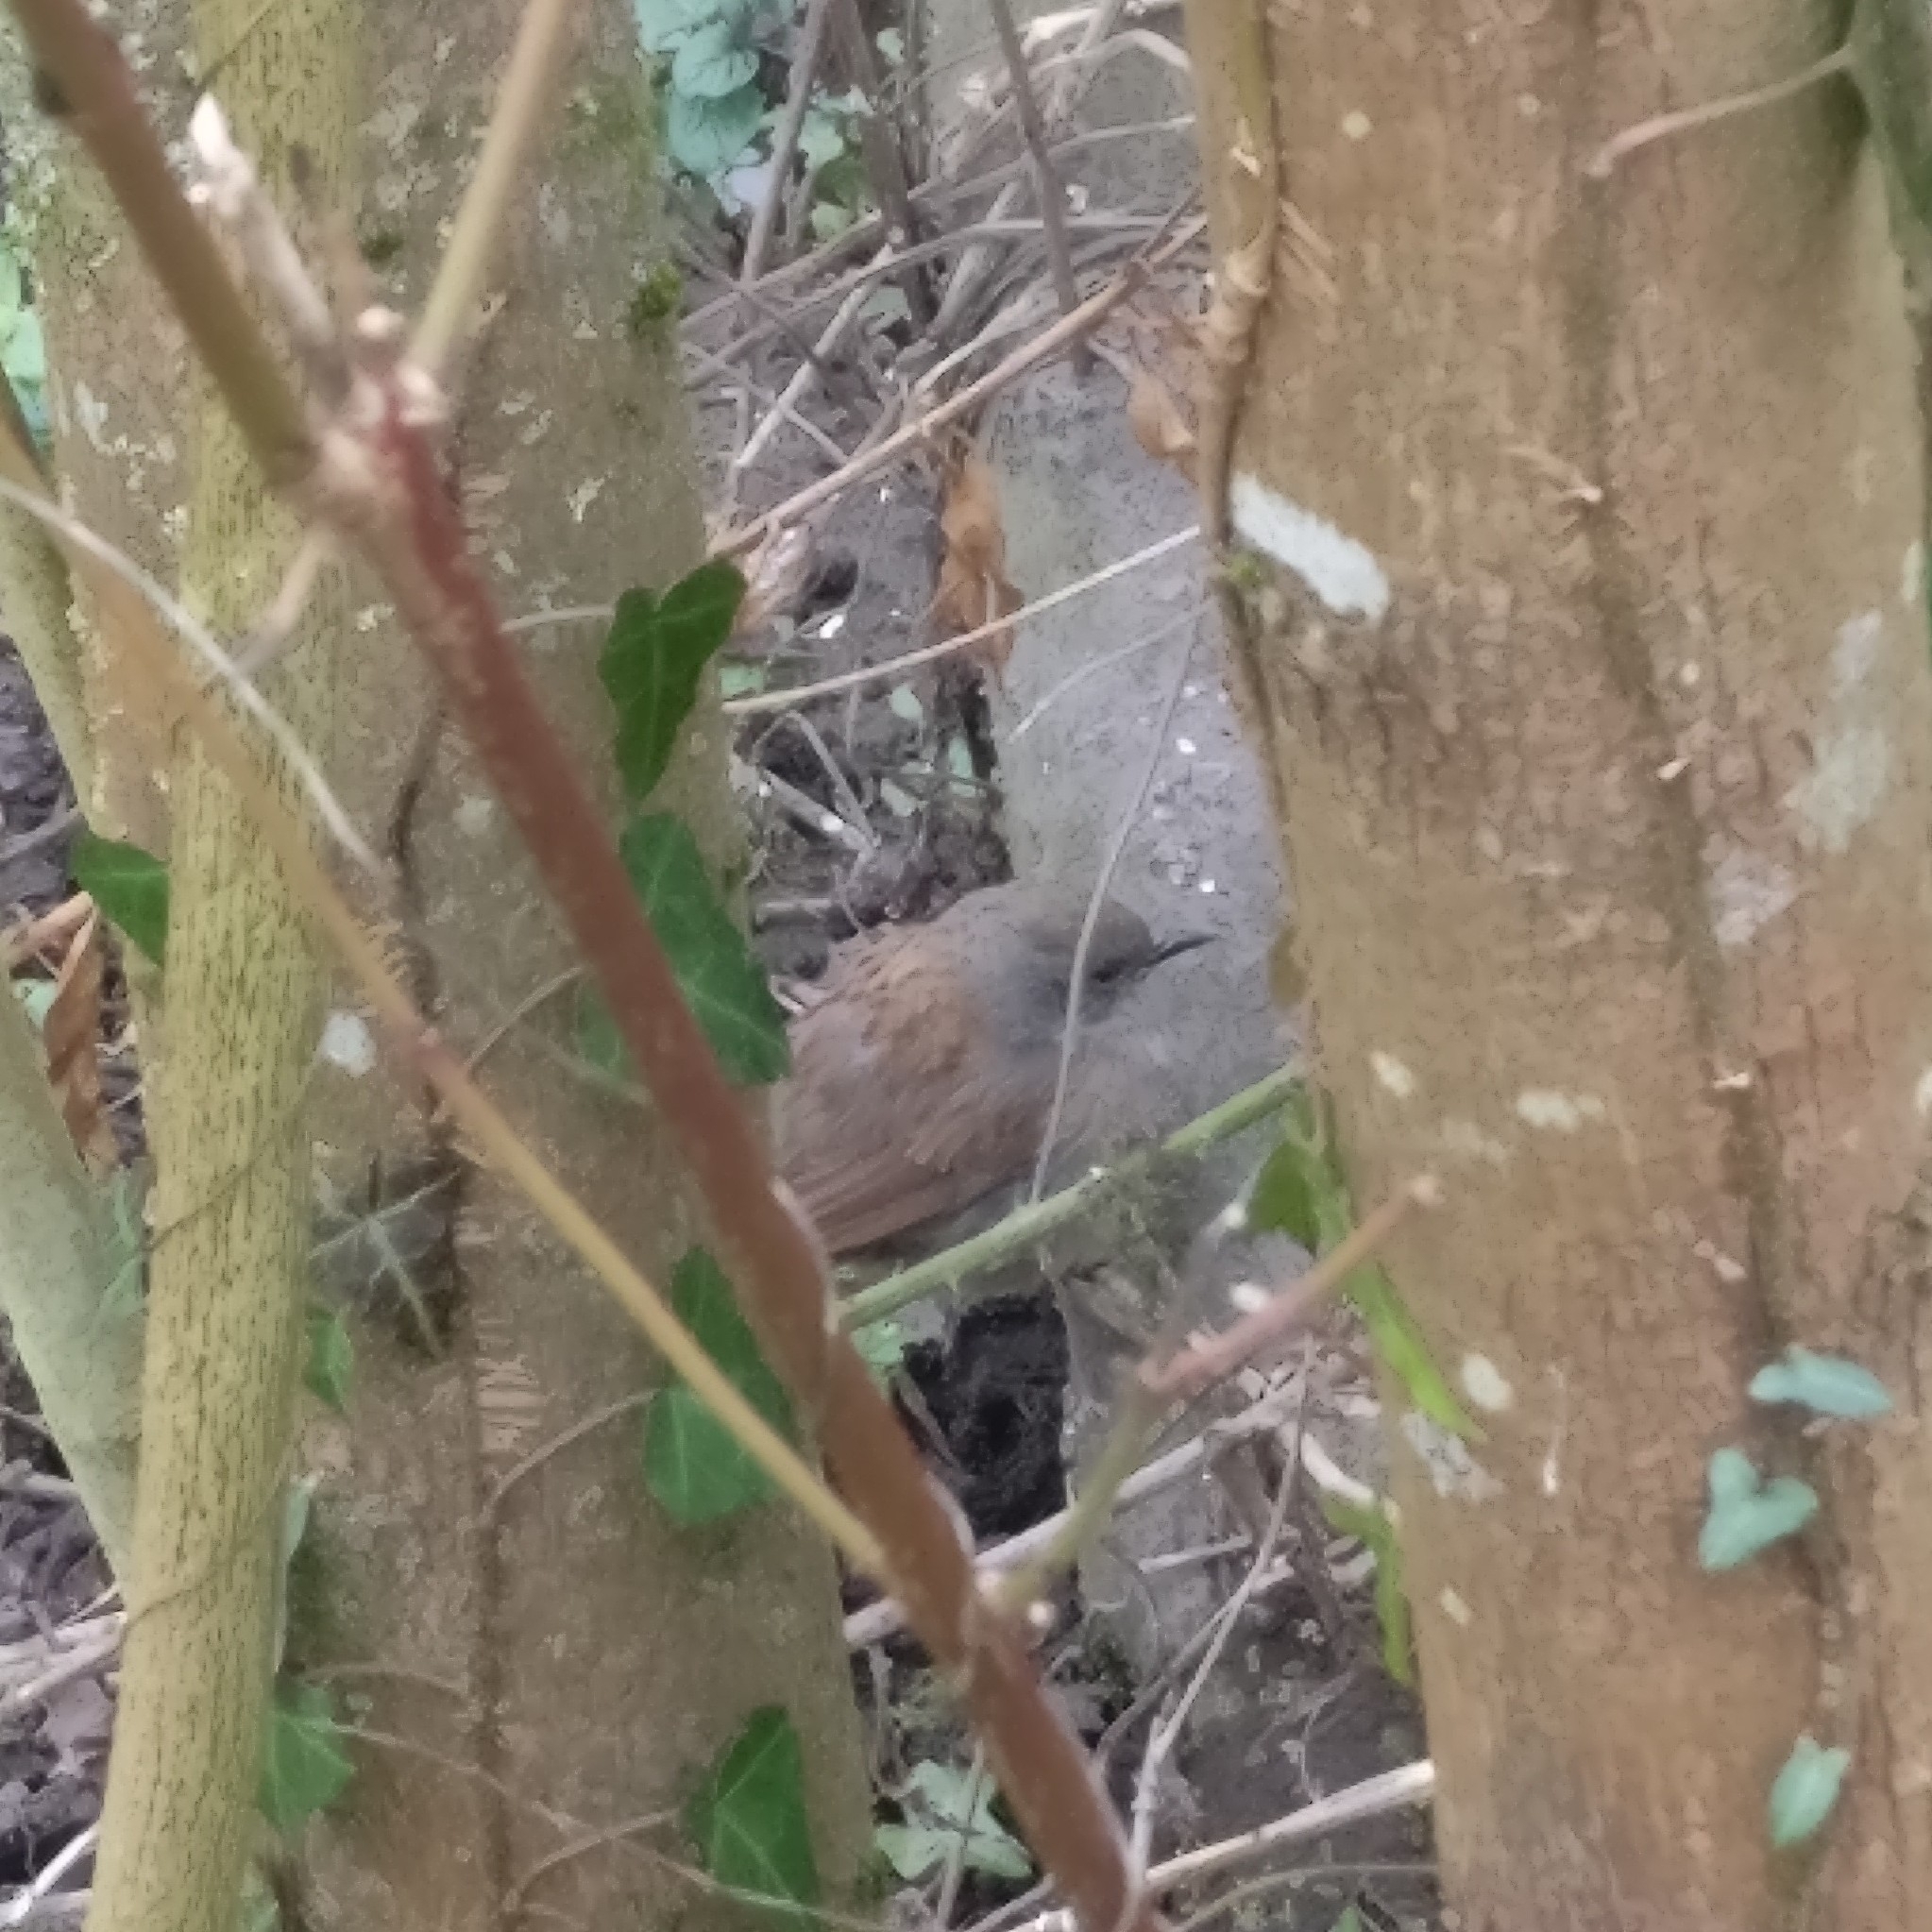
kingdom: Animalia
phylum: Chordata
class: Aves
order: Passeriformes
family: Prunellidae
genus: Prunella
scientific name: Prunella modularis
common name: Dunnock
